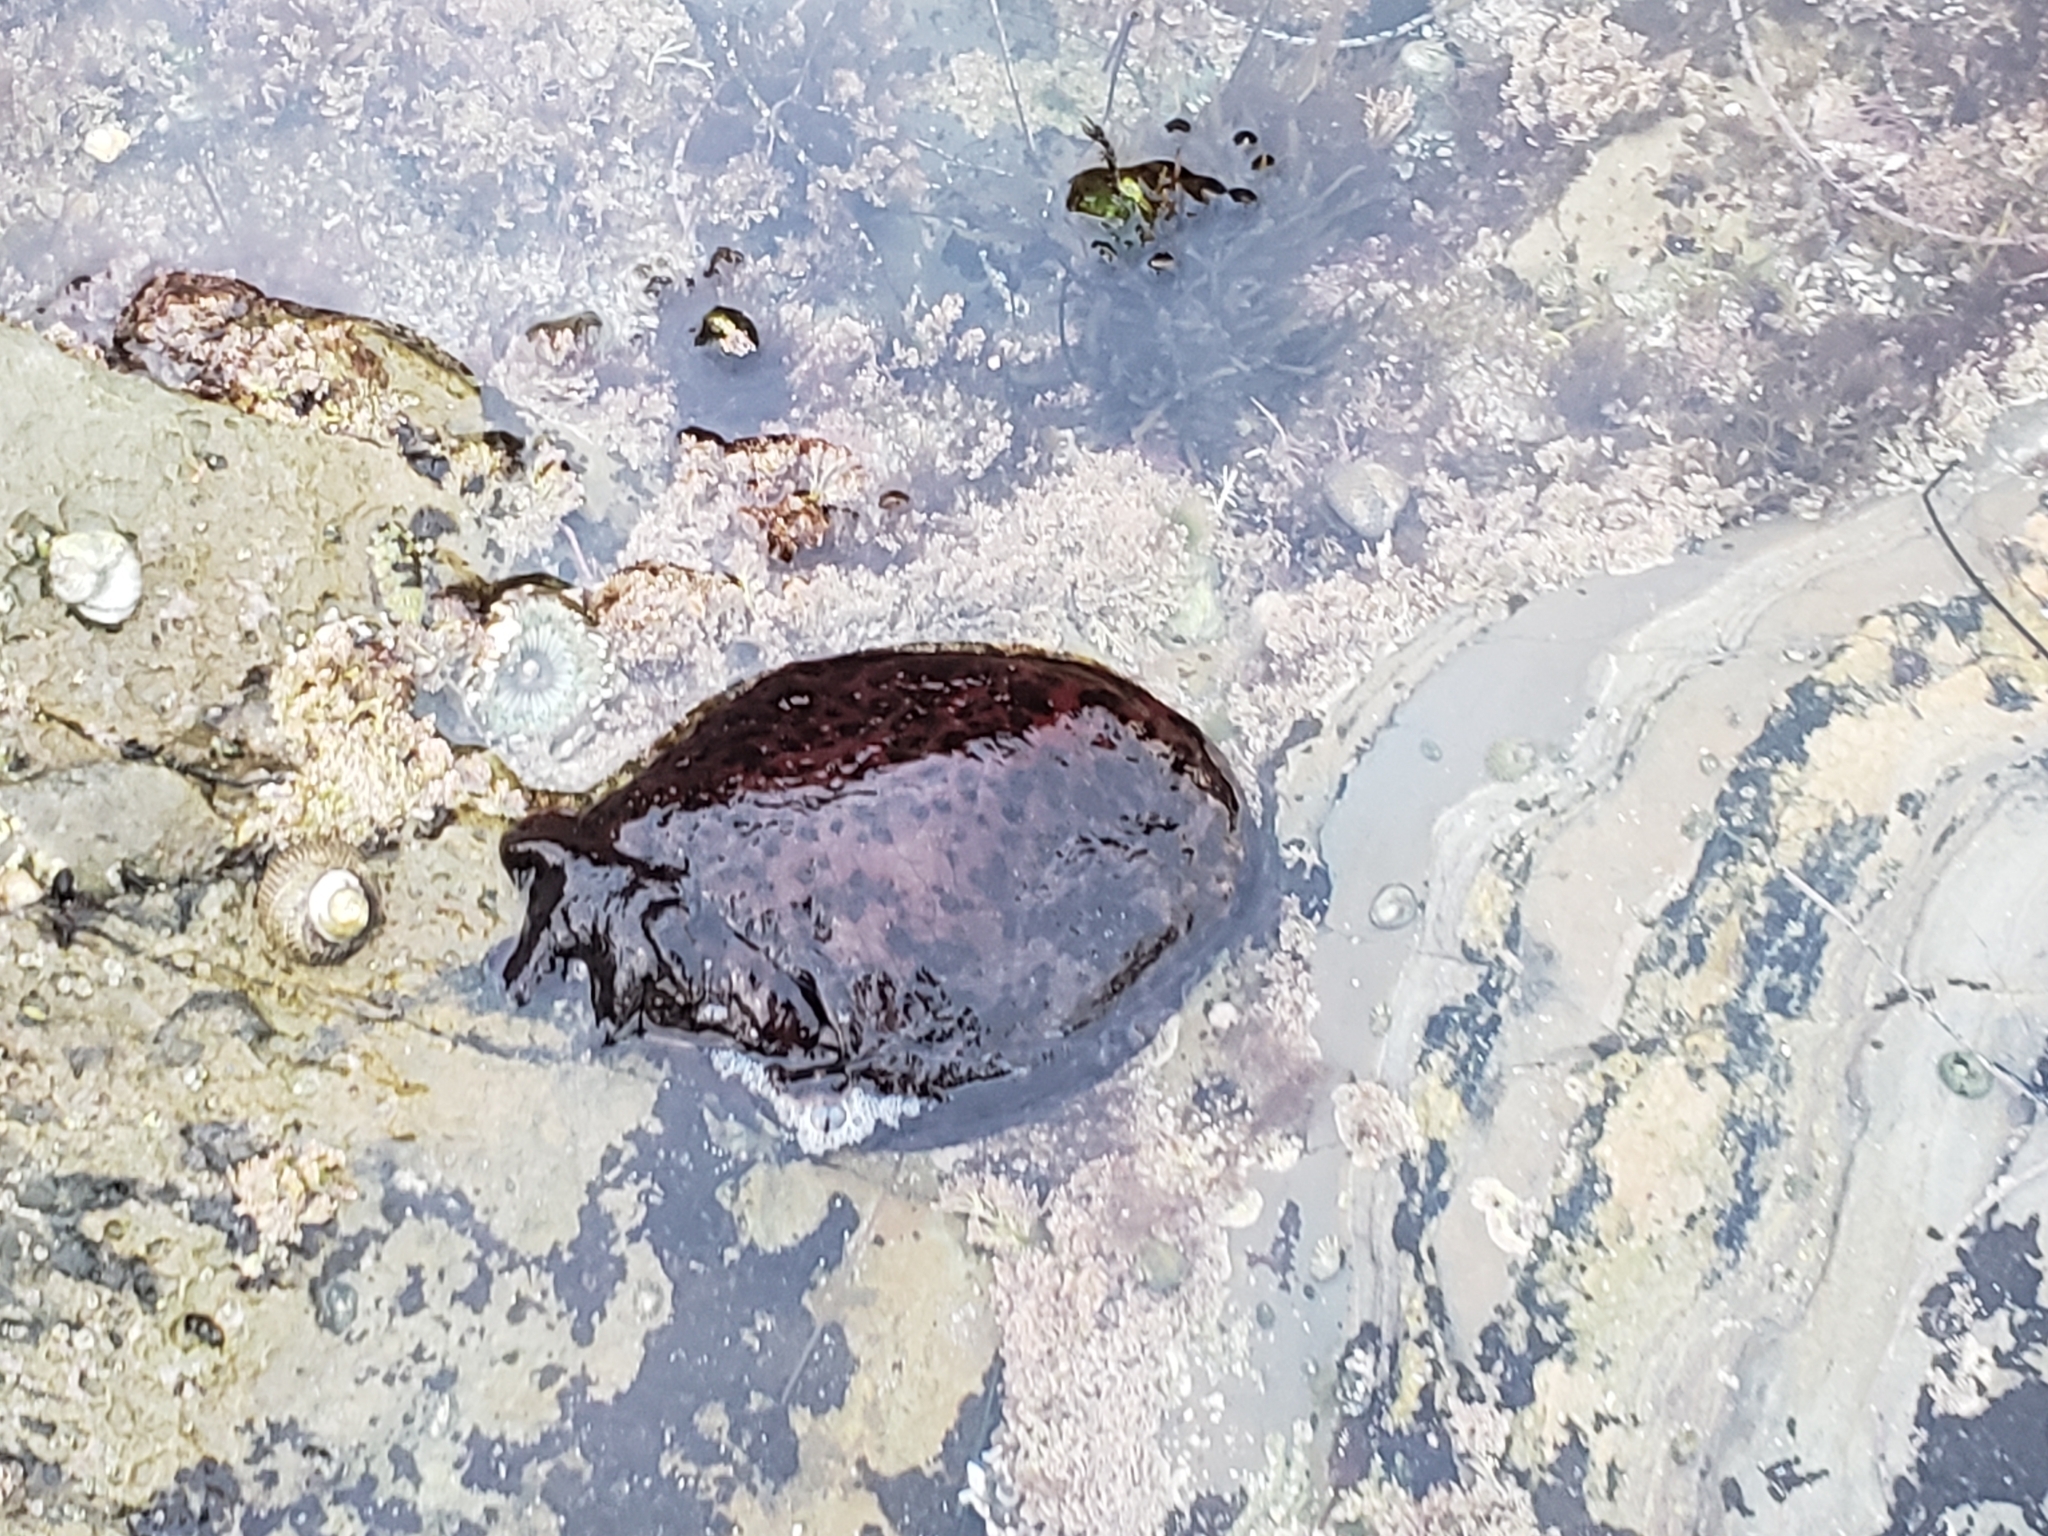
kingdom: Animalia
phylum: Mollusca
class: Gastropoda
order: Aplysiida
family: Aplysiidae
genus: Aplysia
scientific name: Aplysia californica
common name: California seahare
